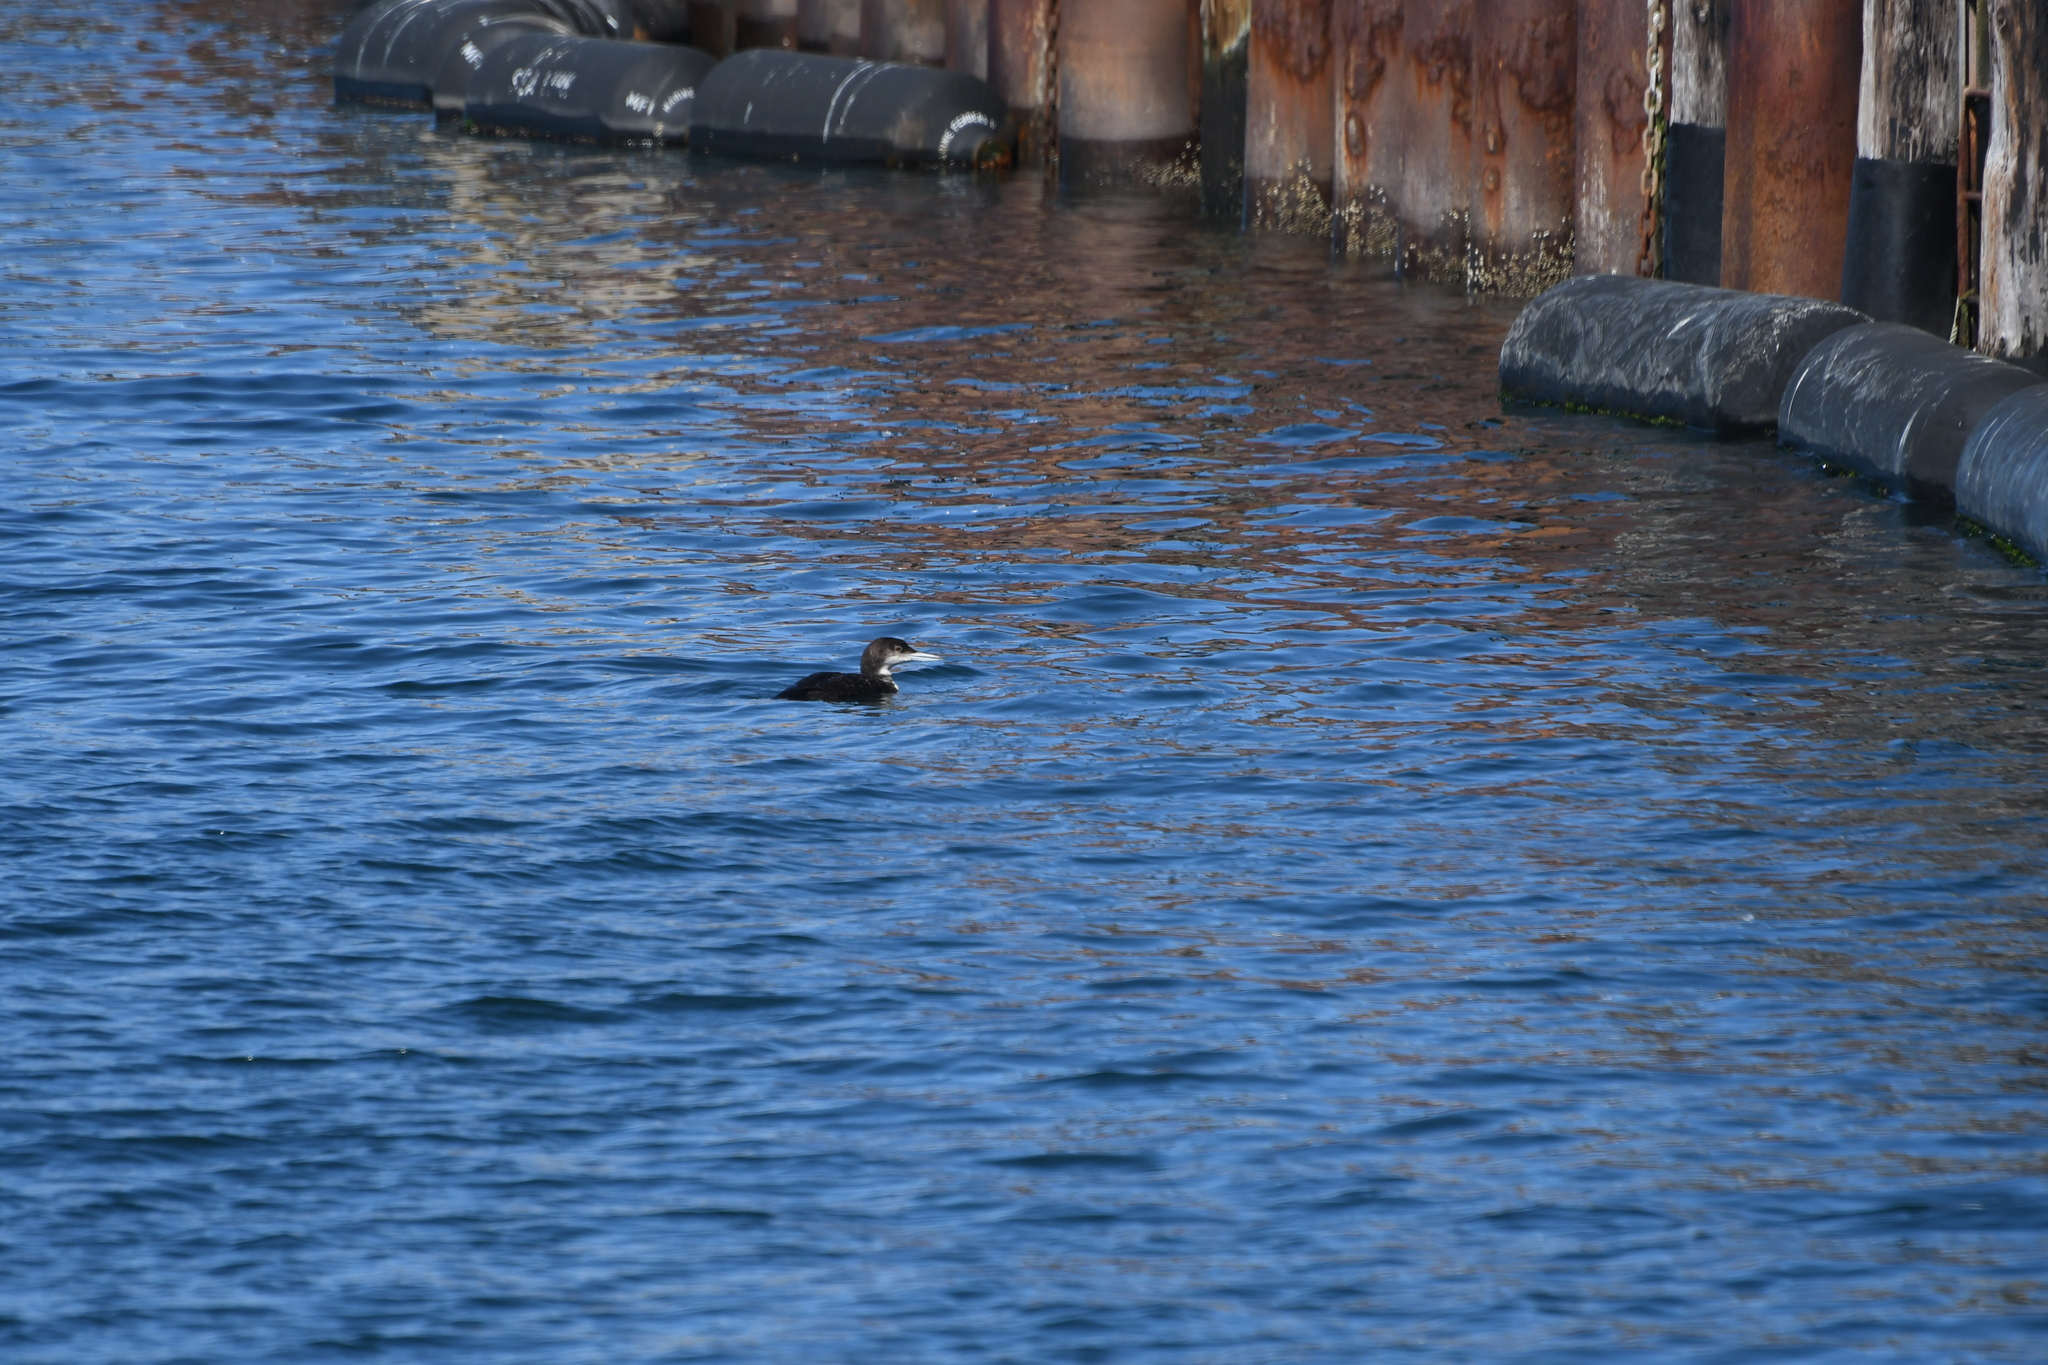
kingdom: Animalia
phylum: Chordata
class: Aves
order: Gaviiformes
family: Gaviidae
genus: Gavia
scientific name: Gavia immer
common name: Common loon
